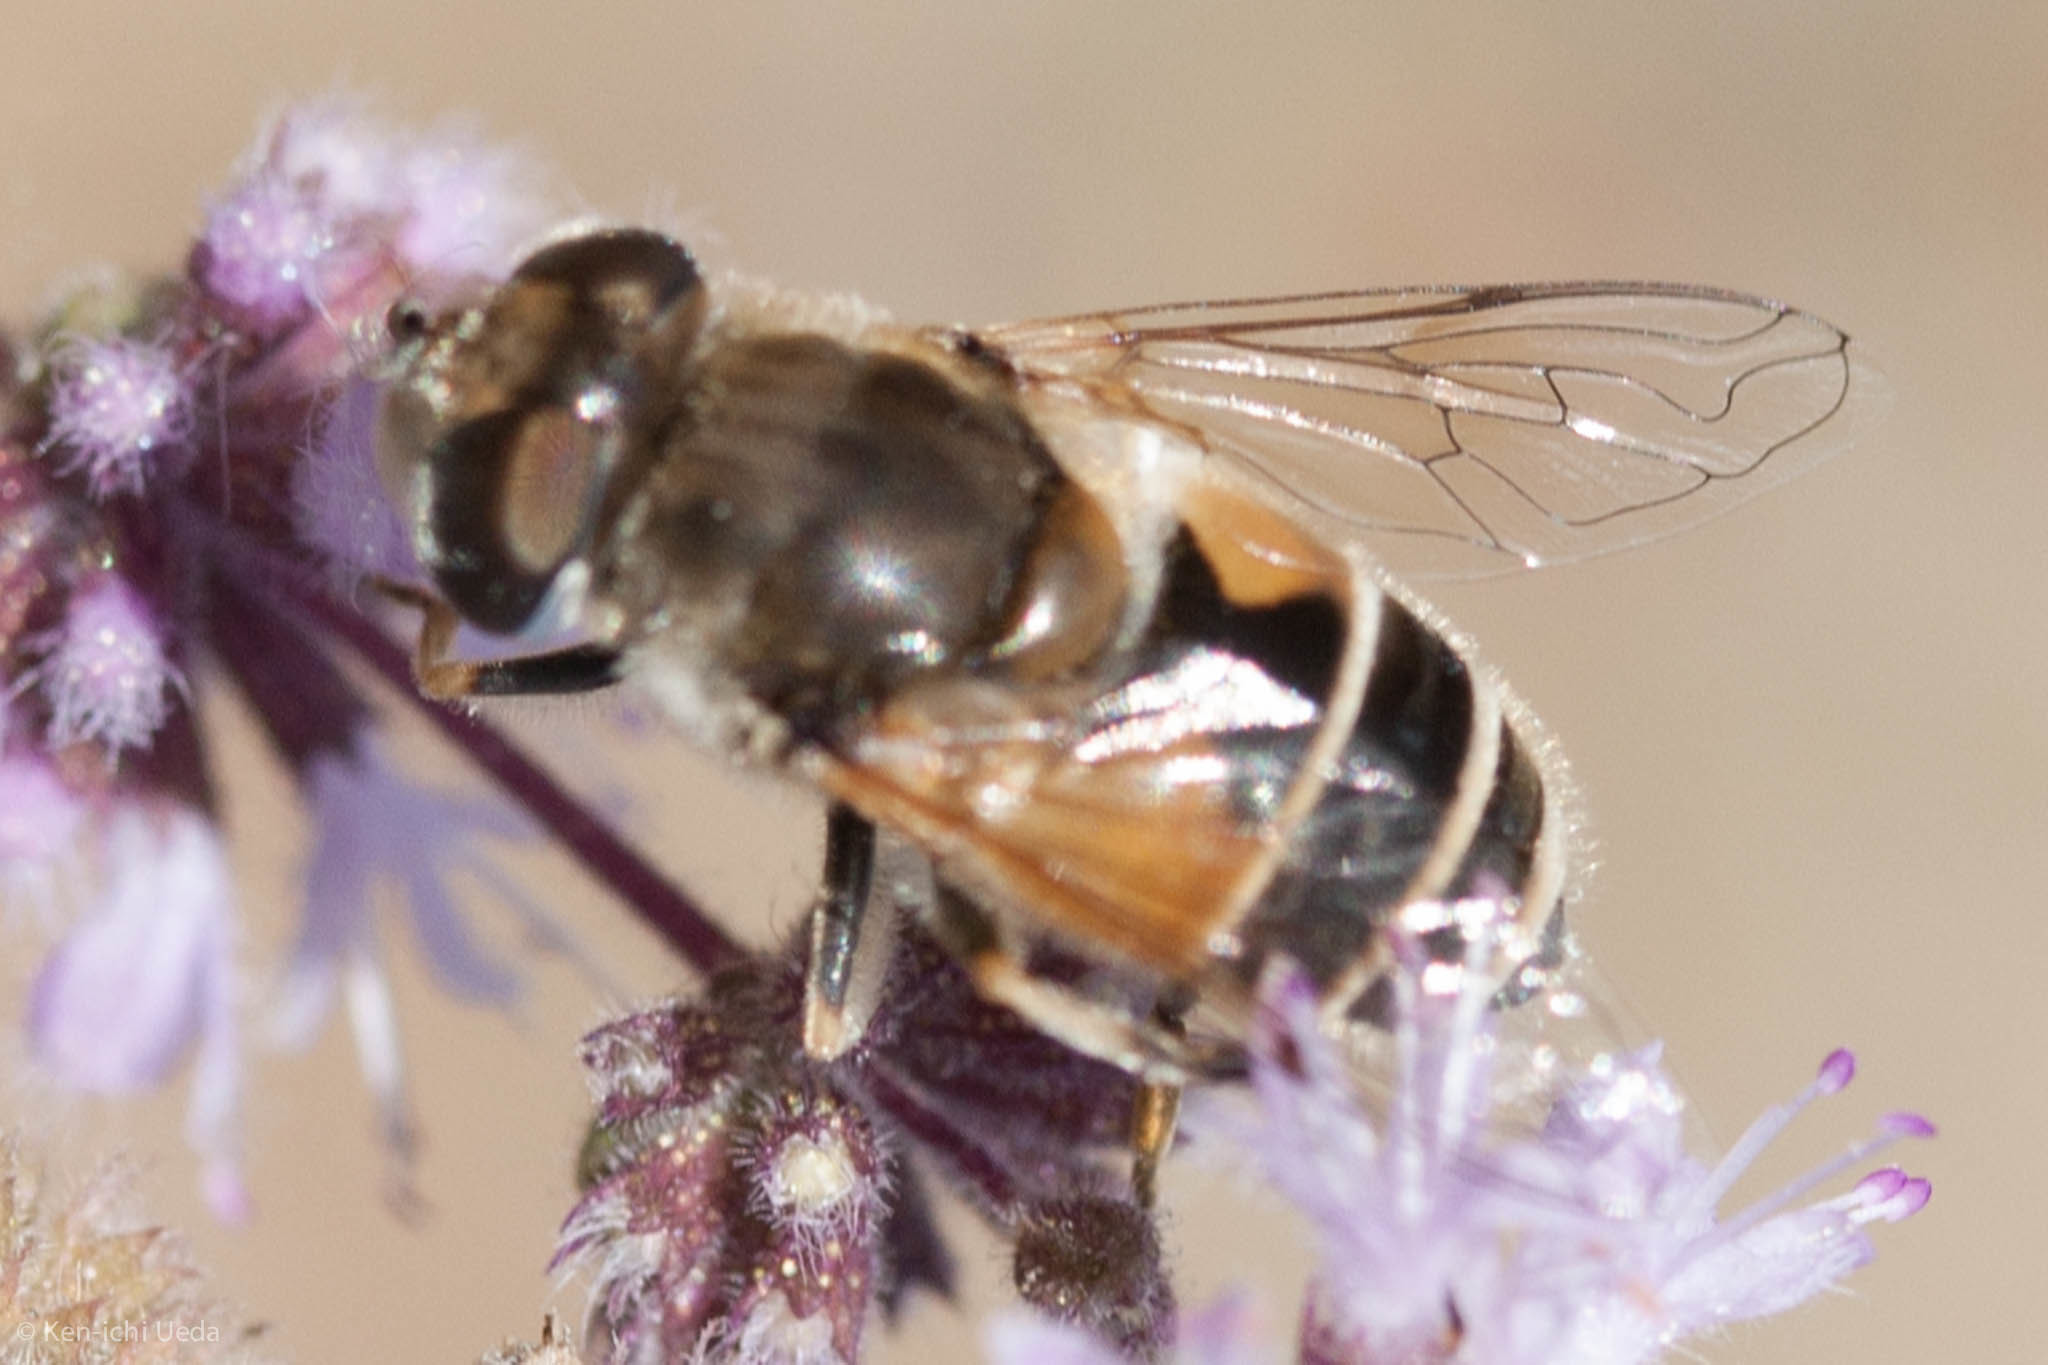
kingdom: Animalia
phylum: Arthropoda
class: Insecta
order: Diptera
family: Syrphidae
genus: Eristalis
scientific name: Eristalis arbustorum
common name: Hover fly
